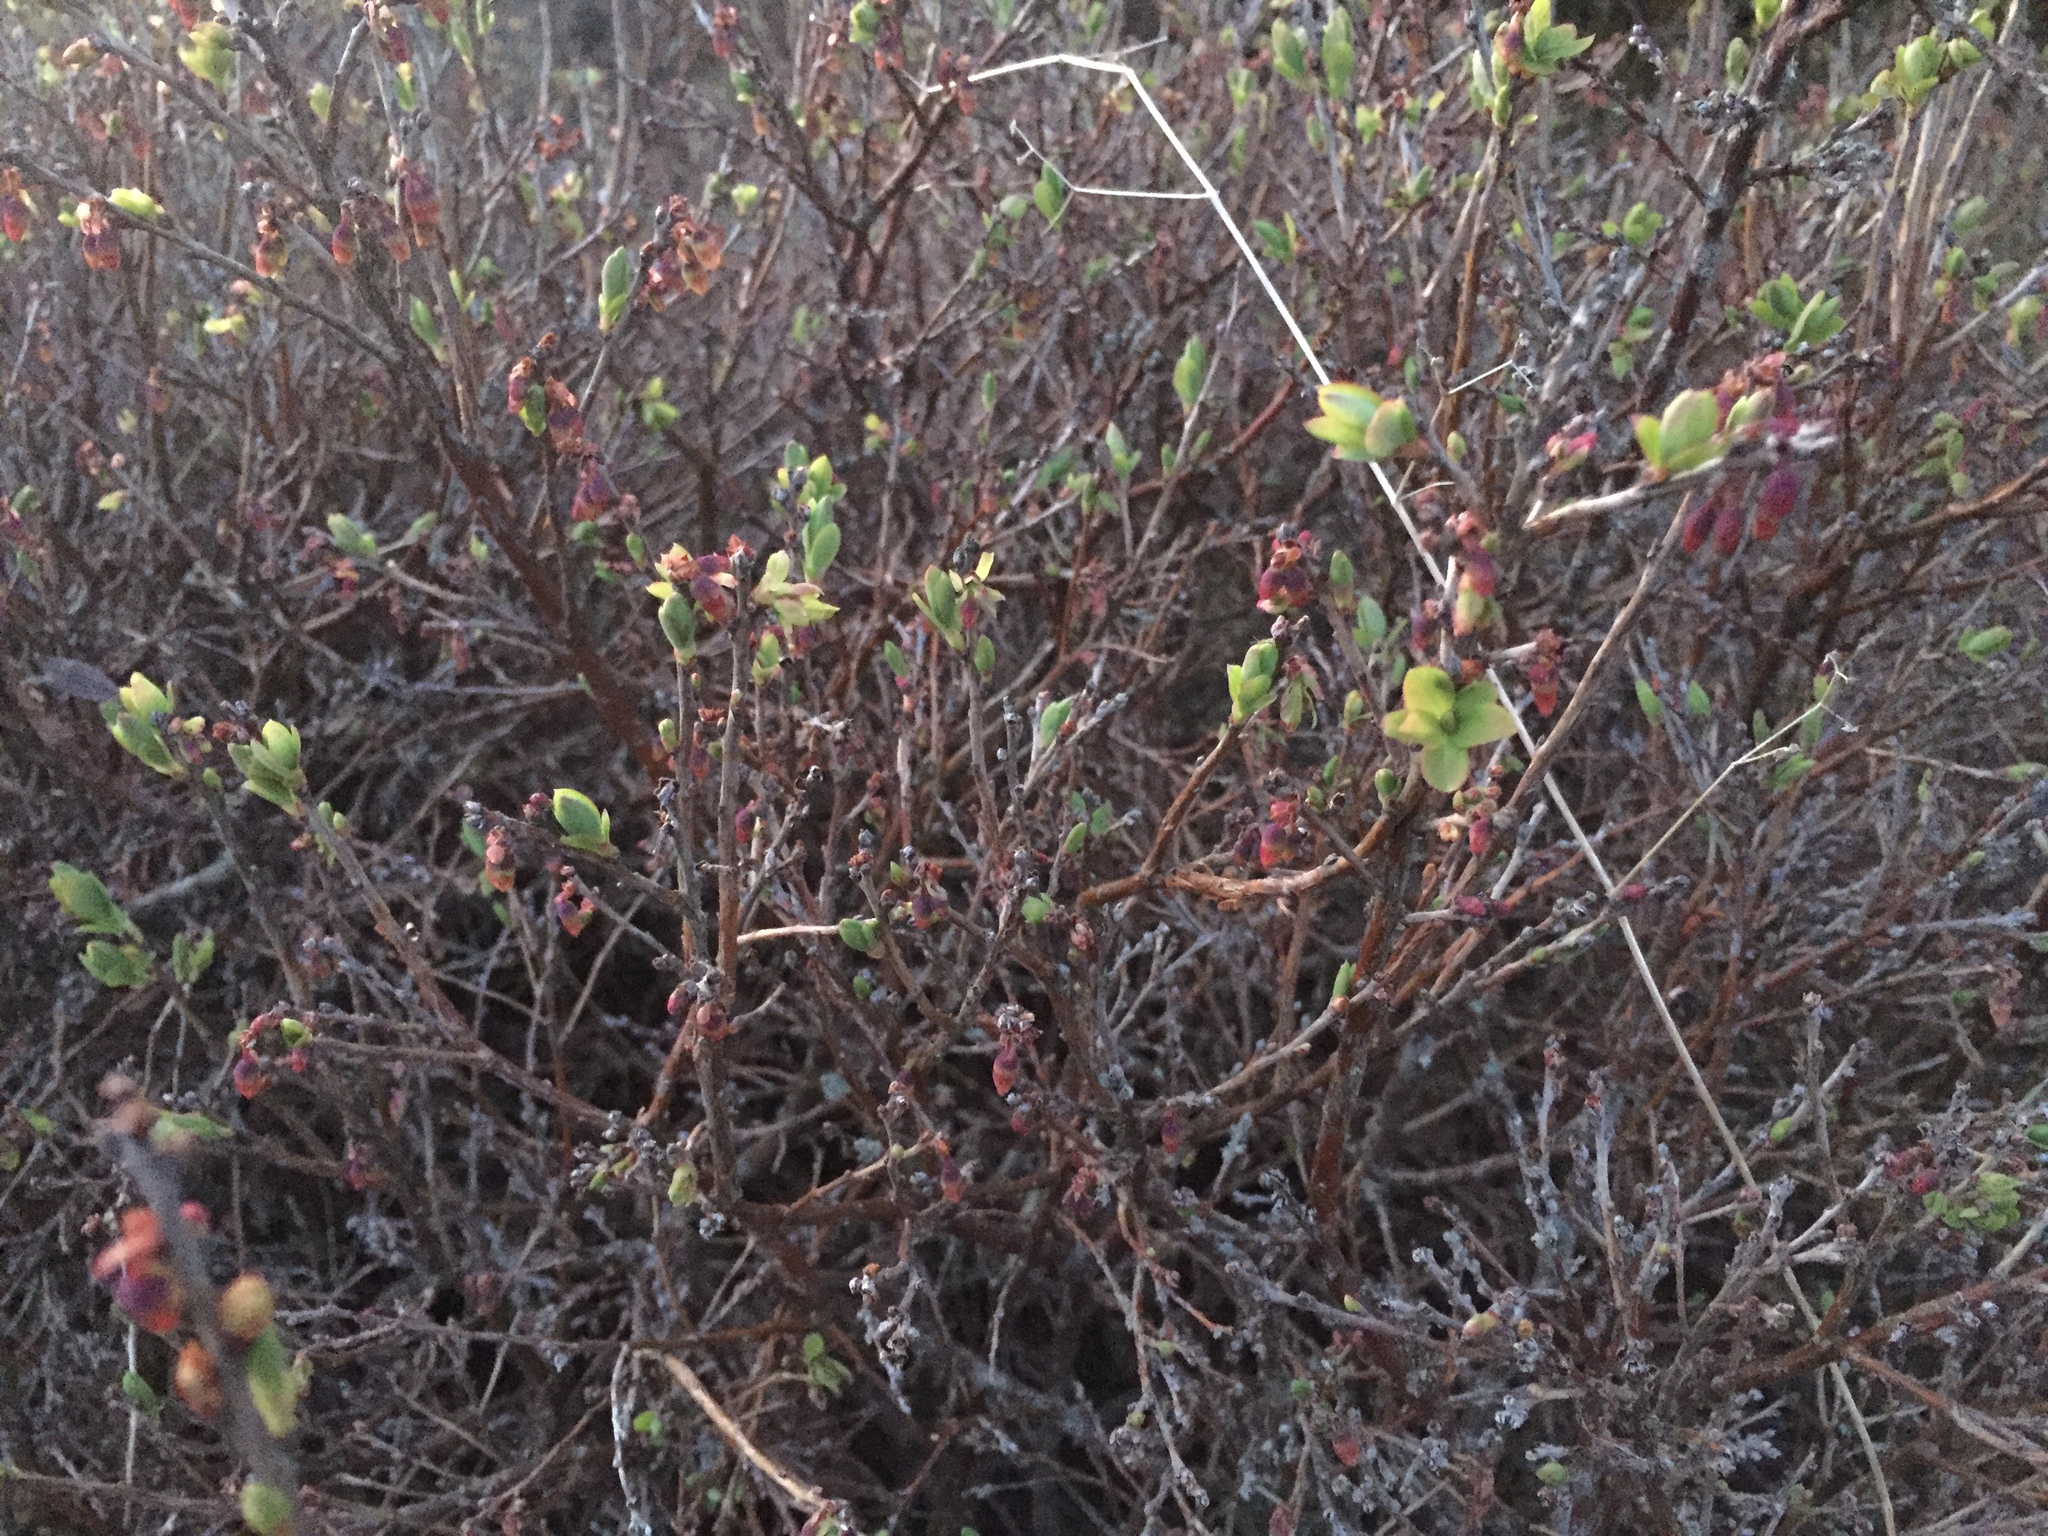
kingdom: Plantae
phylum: Tracheophyta
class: Magnoliopsida
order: Ericales
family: Ericaceae
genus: Vaccinium
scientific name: Vaccinium uliginosum
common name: Bog bilberry
